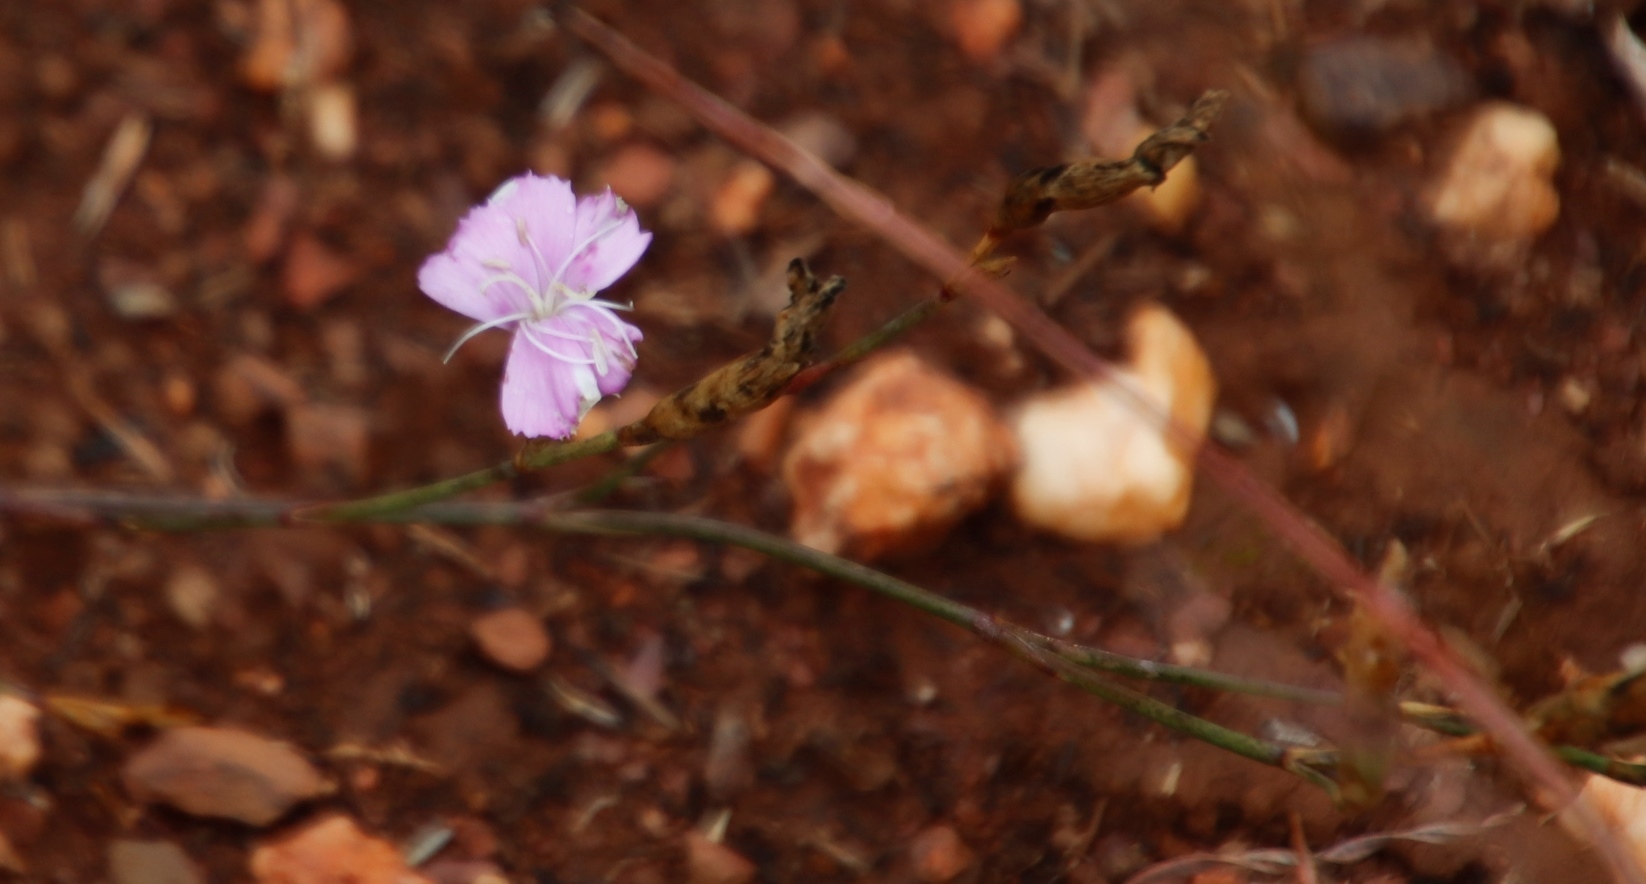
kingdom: Plantae
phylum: Tracheophyta
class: Magnoliopsida
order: Caryophyllales
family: Caryophyllaceae
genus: Dianthus
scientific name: Dianthus albens
